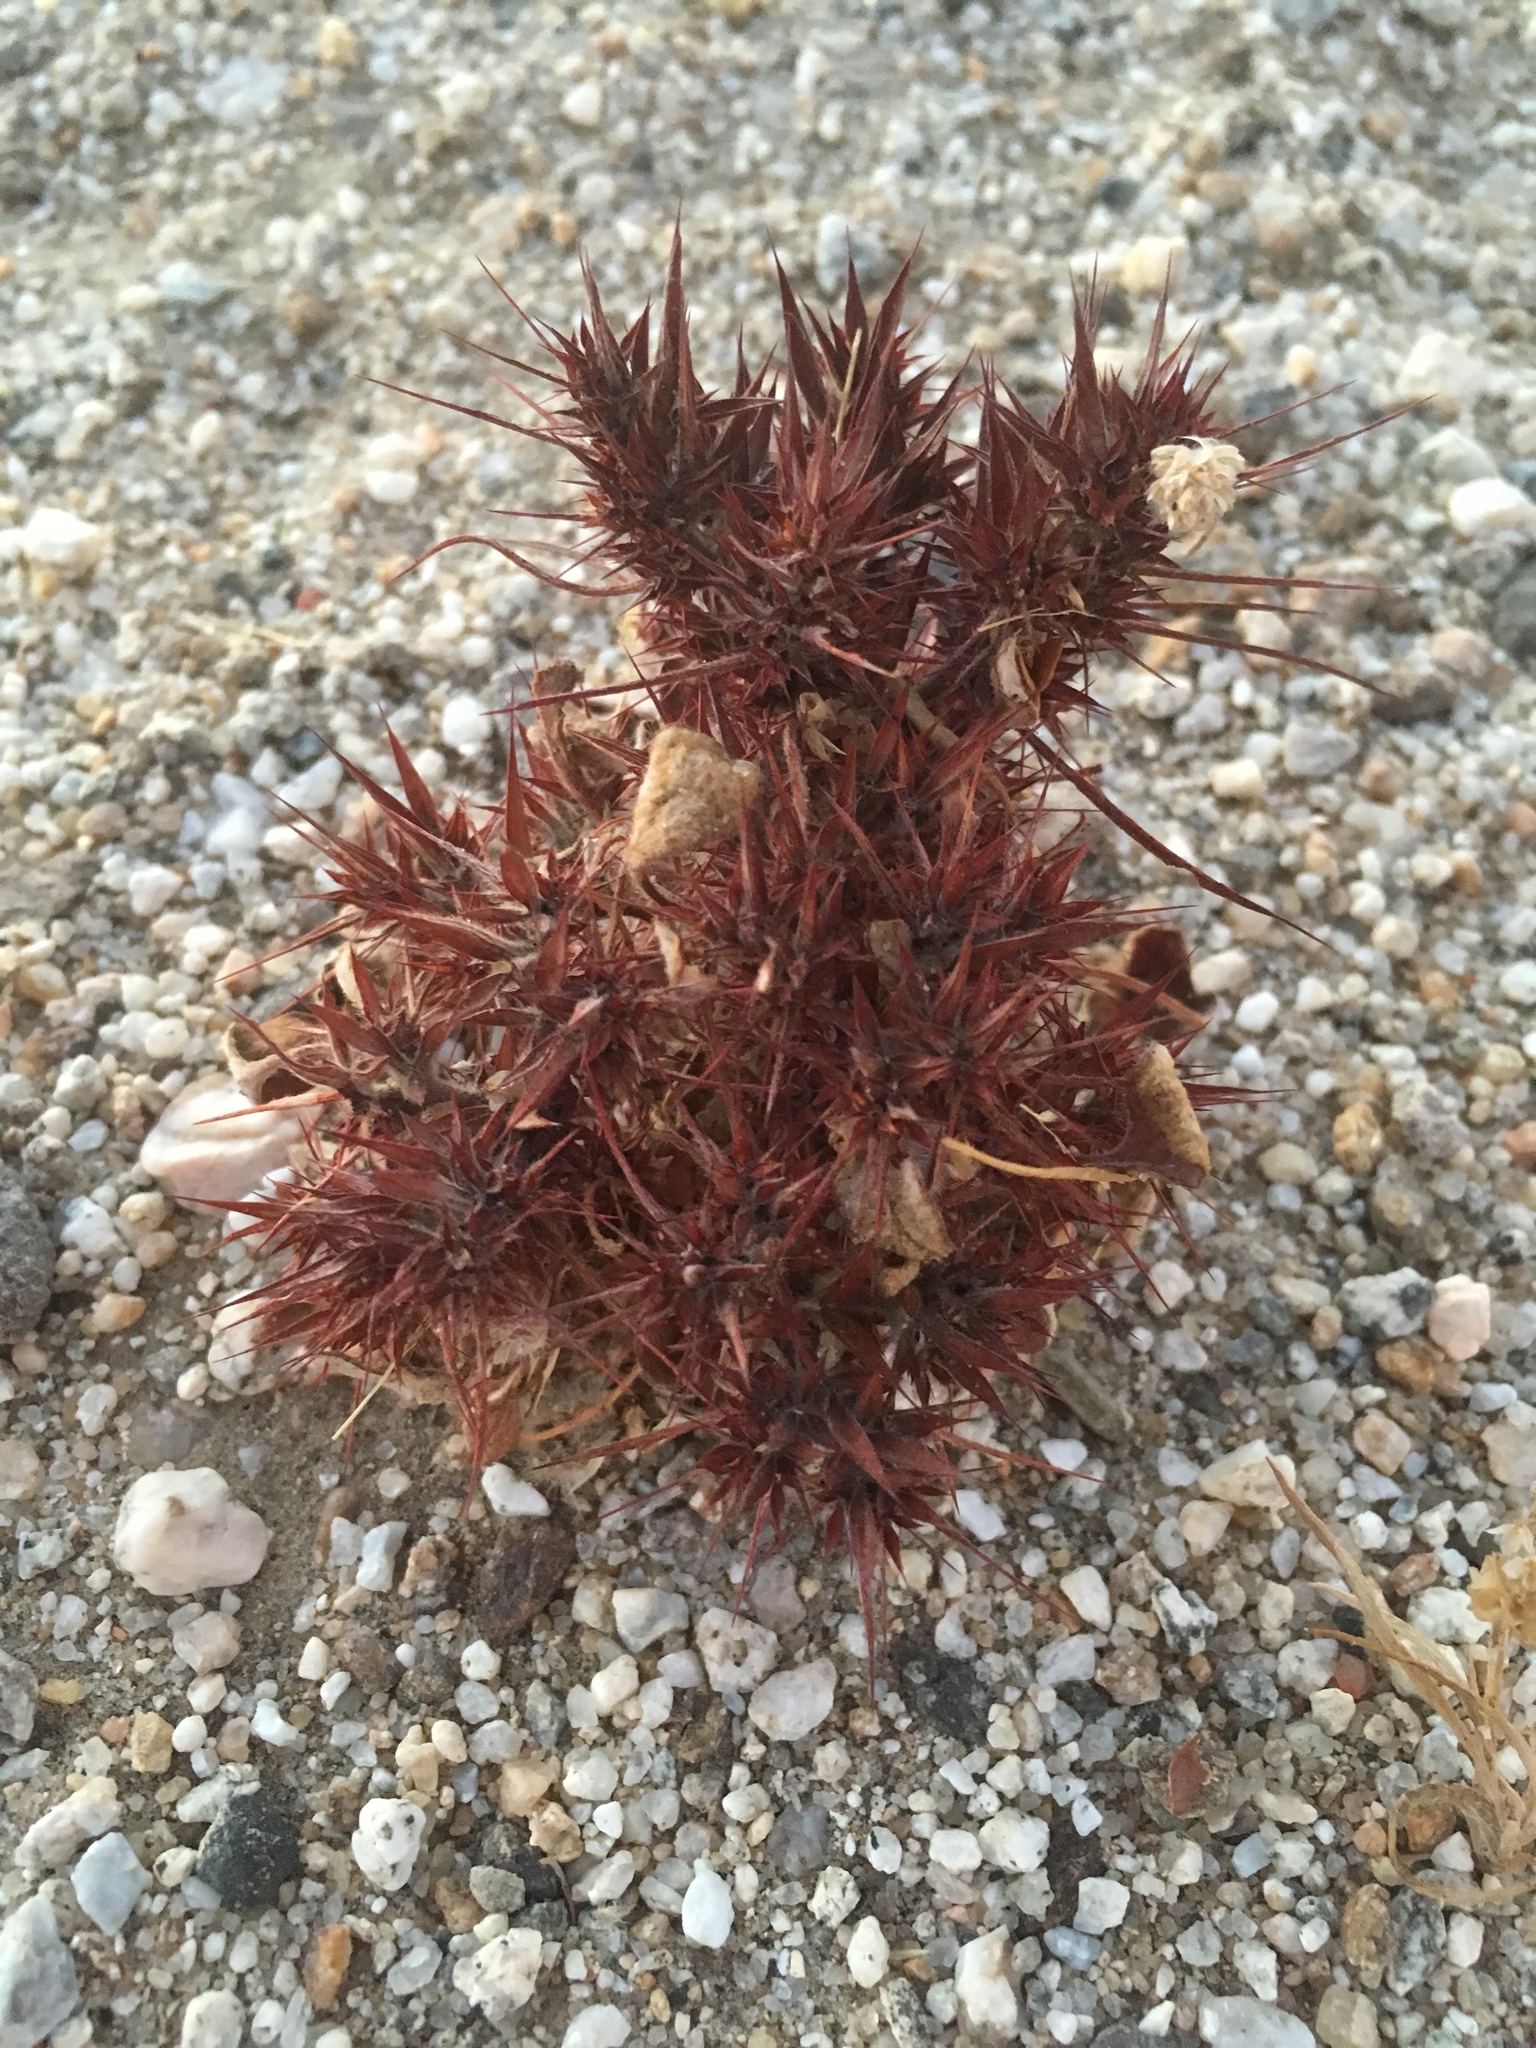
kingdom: Plantae
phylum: Tracheophyta
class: Magnoliopsida
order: Caryophyllales
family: Polygonaceae
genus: Chorizanthe
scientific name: Chorizanthe rigida
